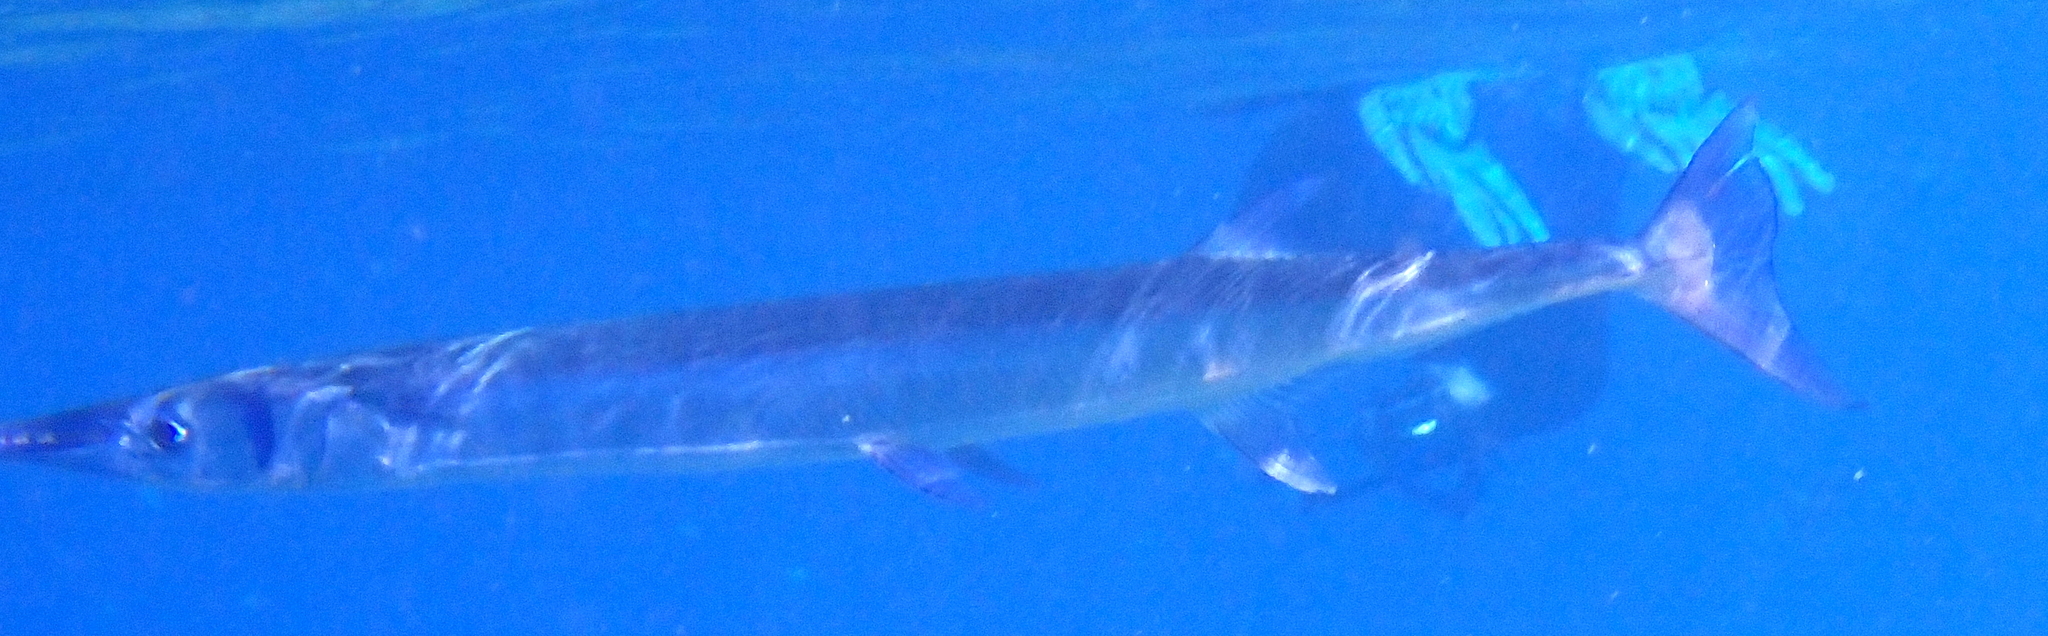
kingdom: Animalia
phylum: Chordata
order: Beloniformes
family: Belonidae
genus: Tylosurus
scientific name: Tylosurus crocodilus
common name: Houndfish
